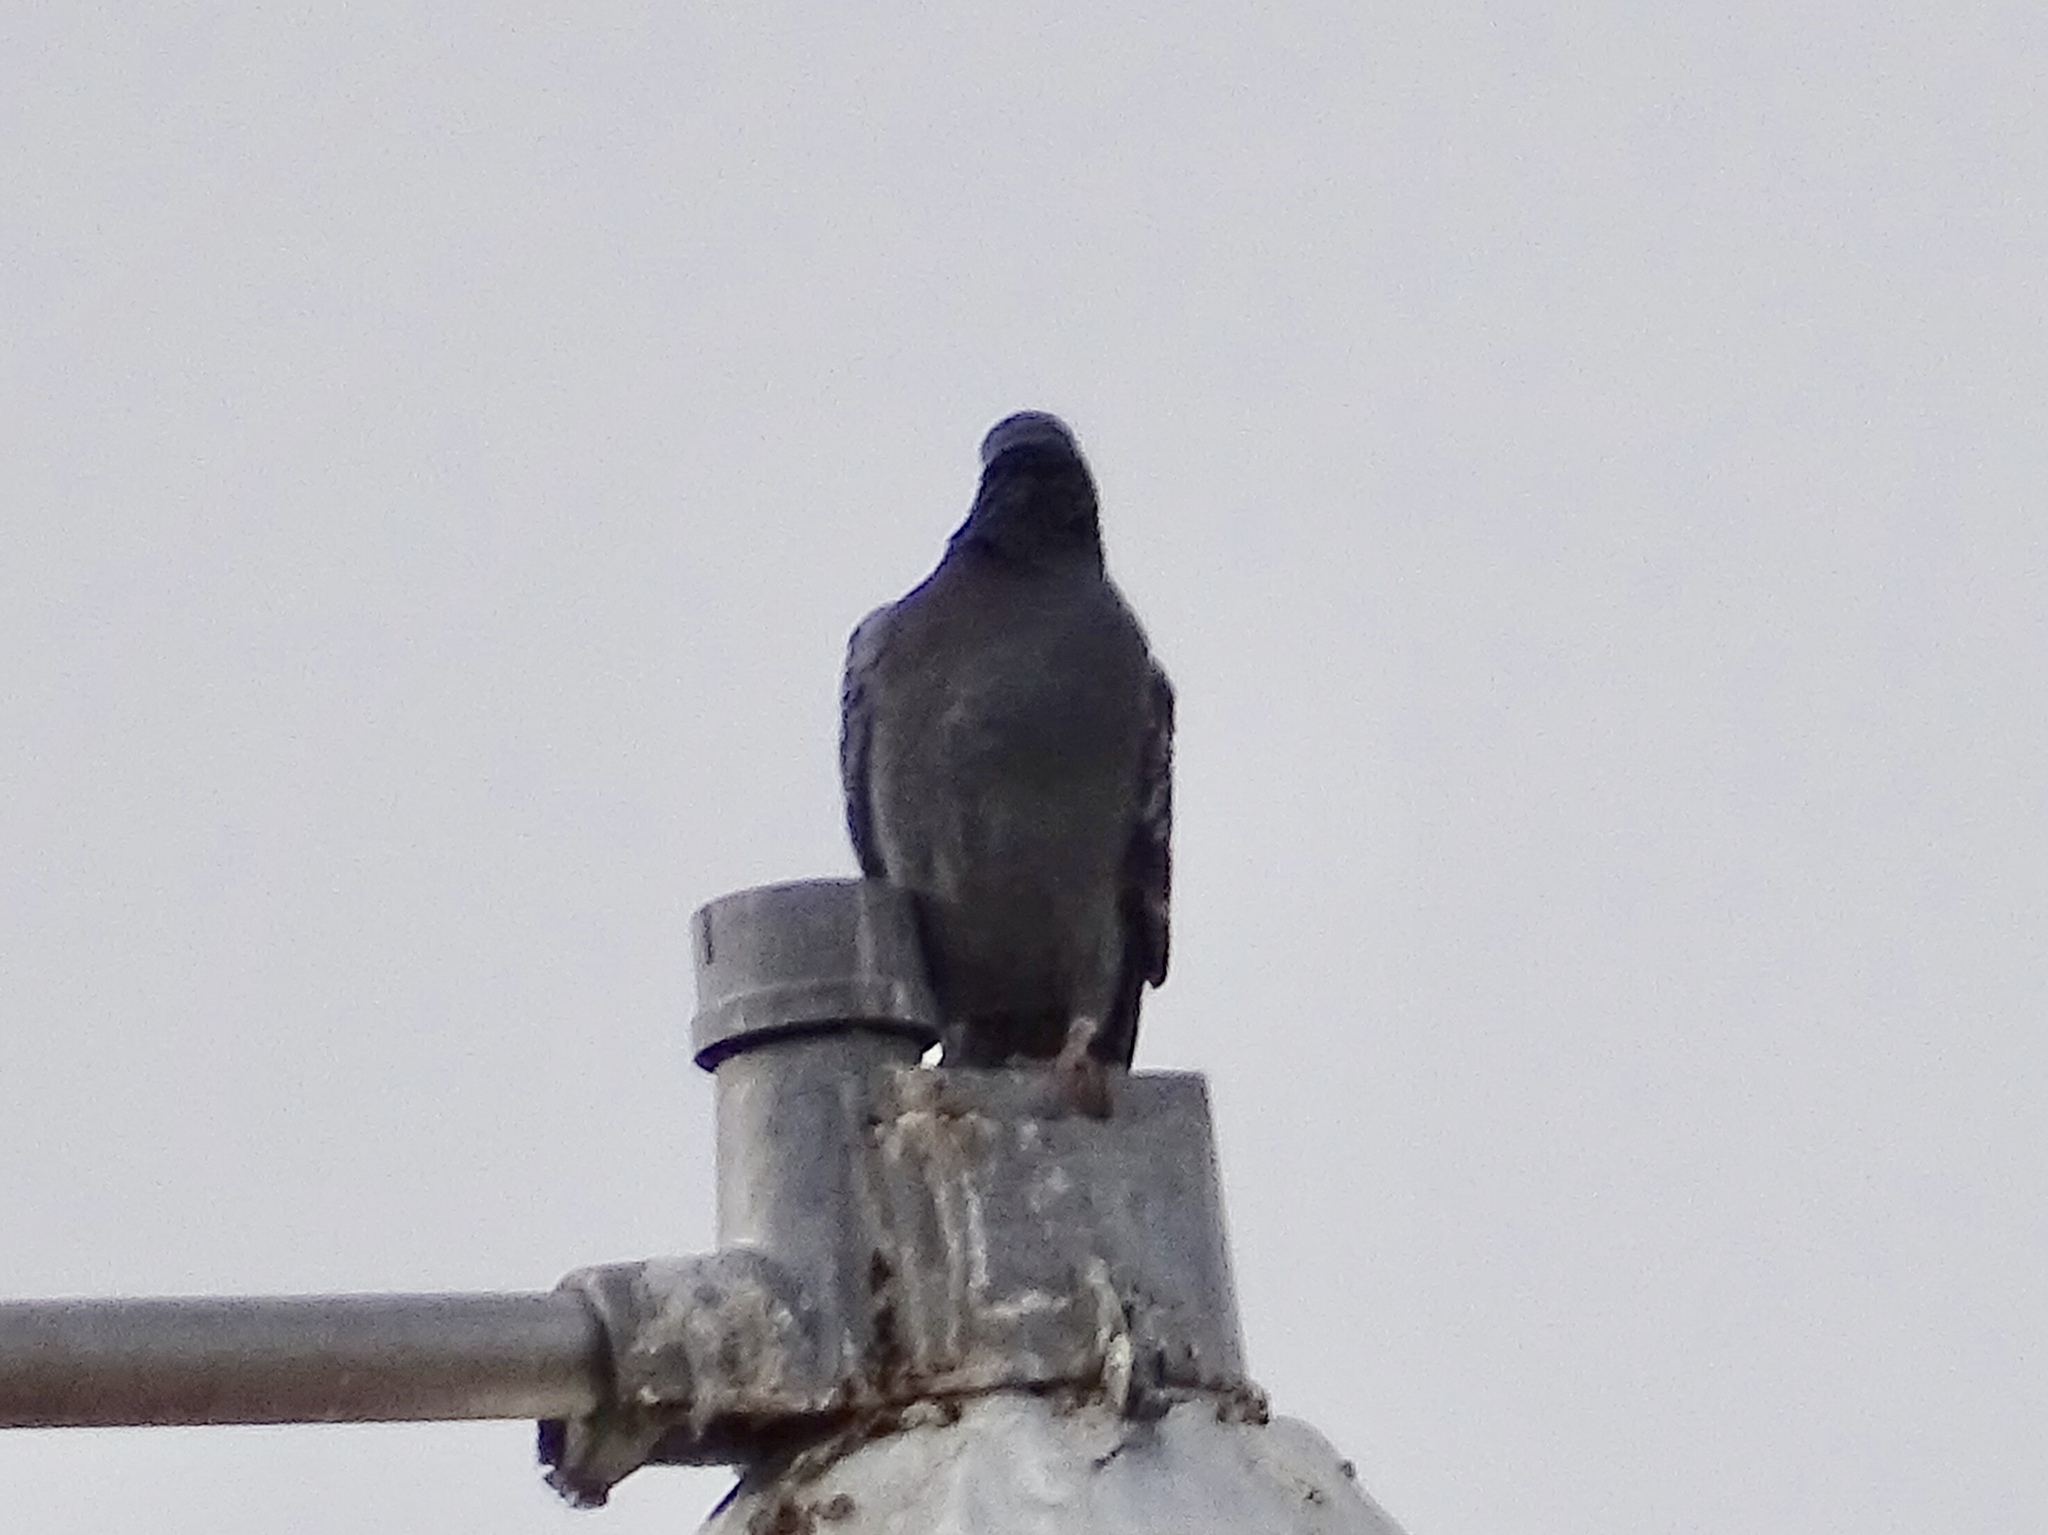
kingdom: Animalia
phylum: Chordata
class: Aves
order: Columbiformes
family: Columbidae
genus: Columba
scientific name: Columba livia
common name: Rock pigeon
